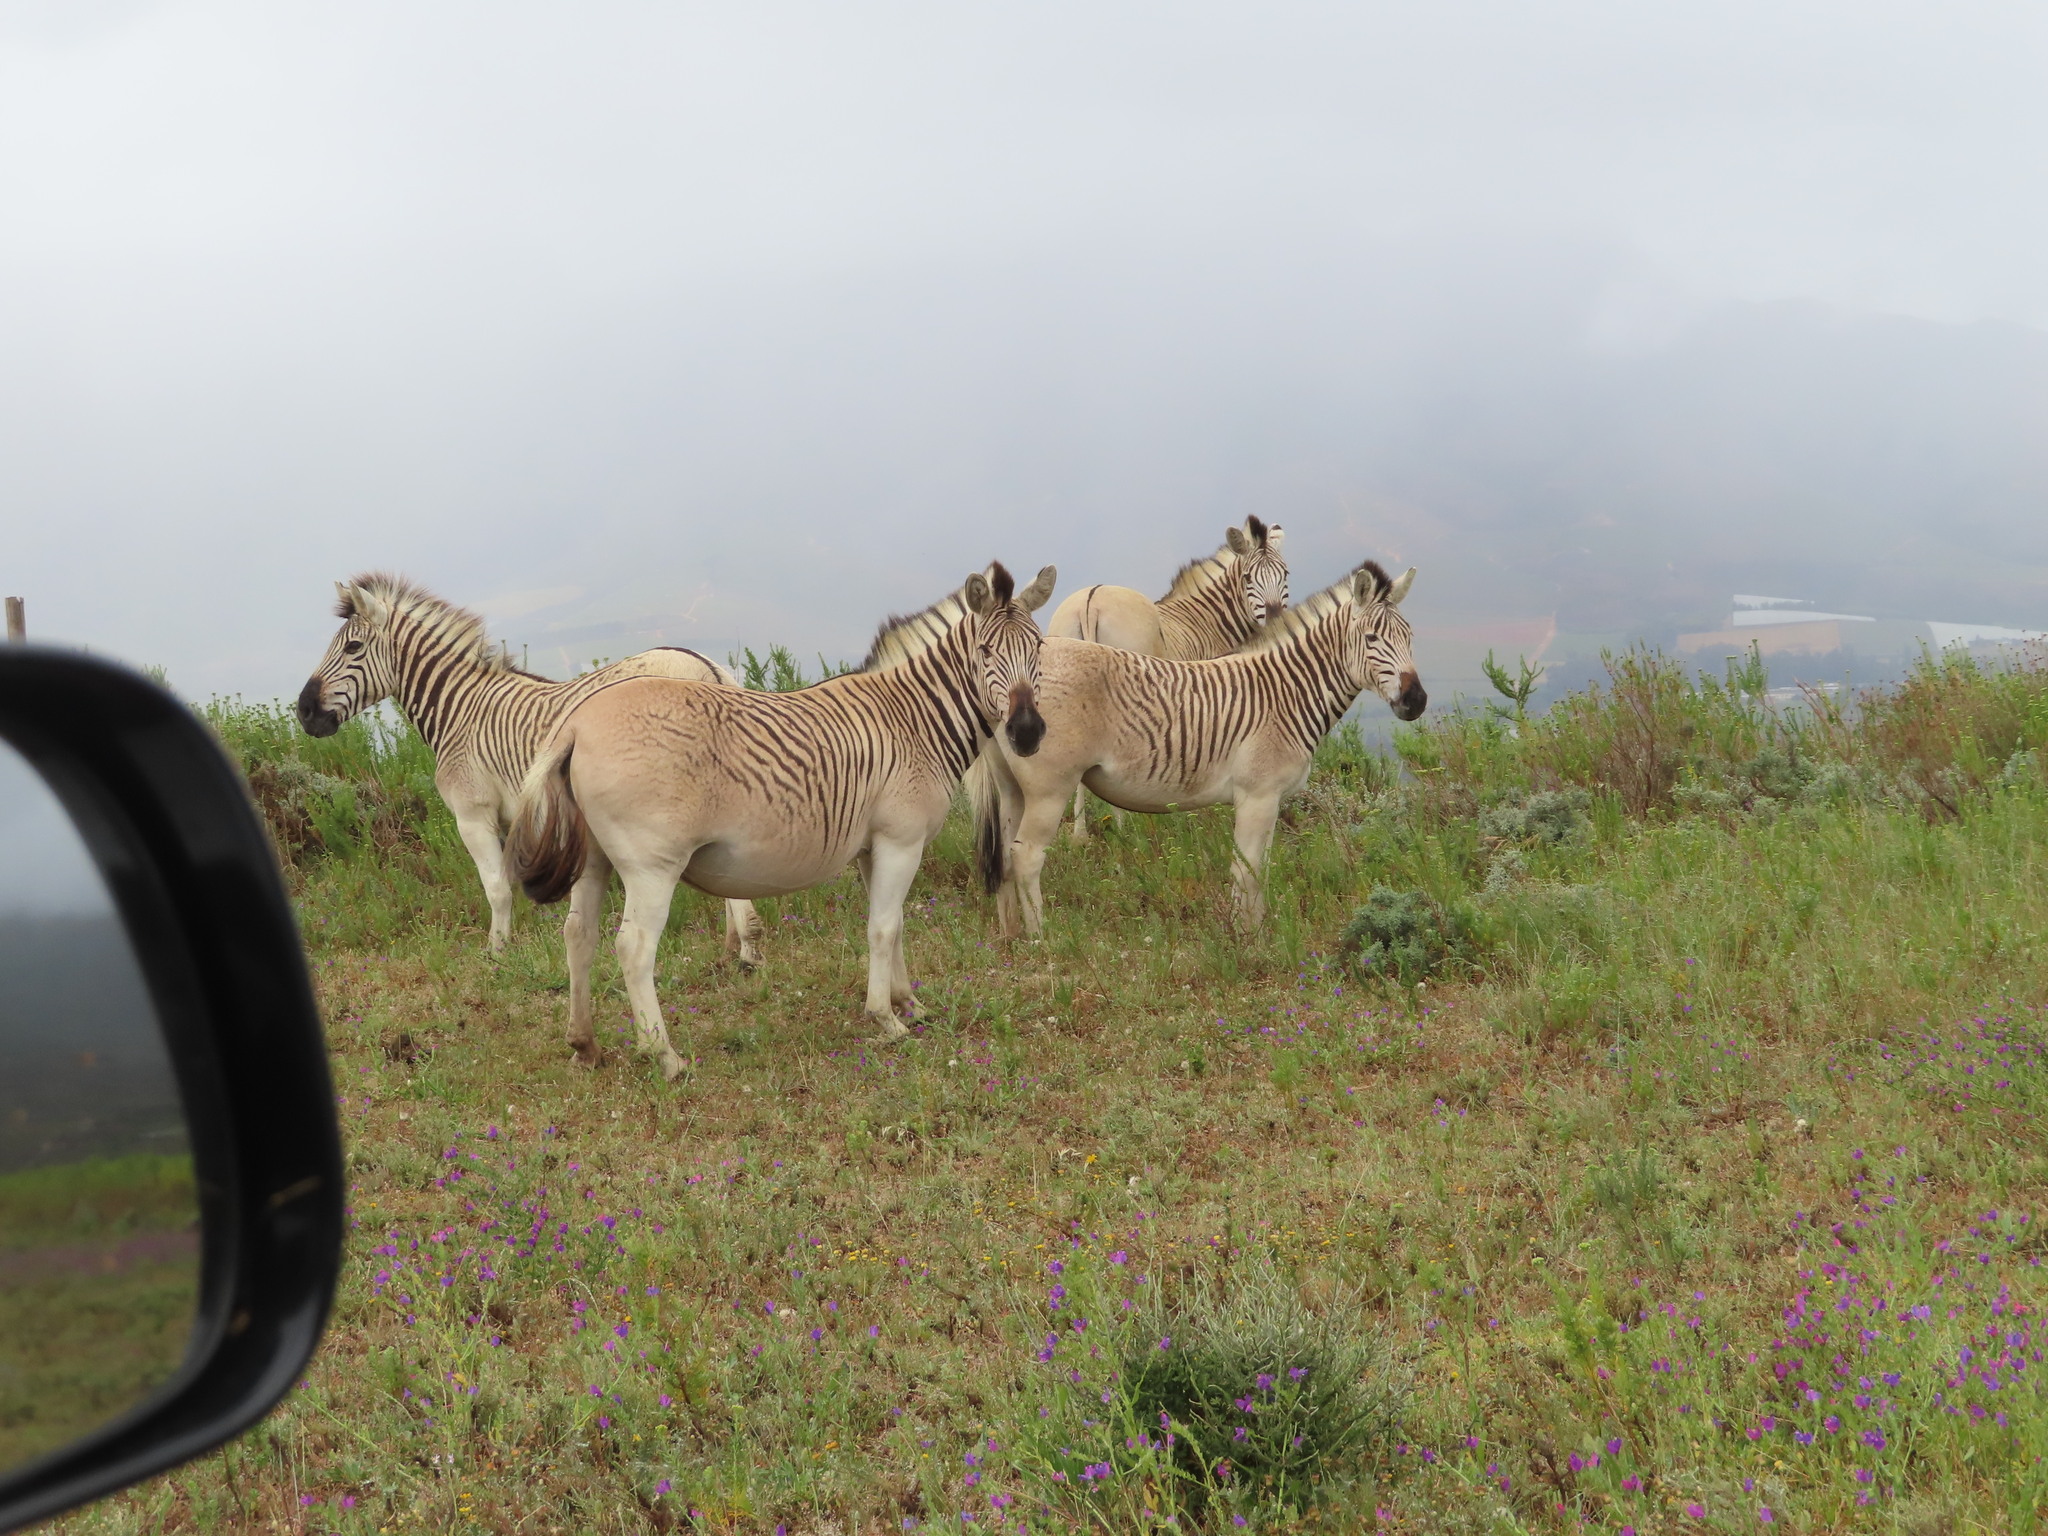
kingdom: Animalia
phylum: Chordata
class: Mammalia
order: Perissodactyla
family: Equidae
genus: Equus
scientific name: Equus quagga
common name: Plains zebra
